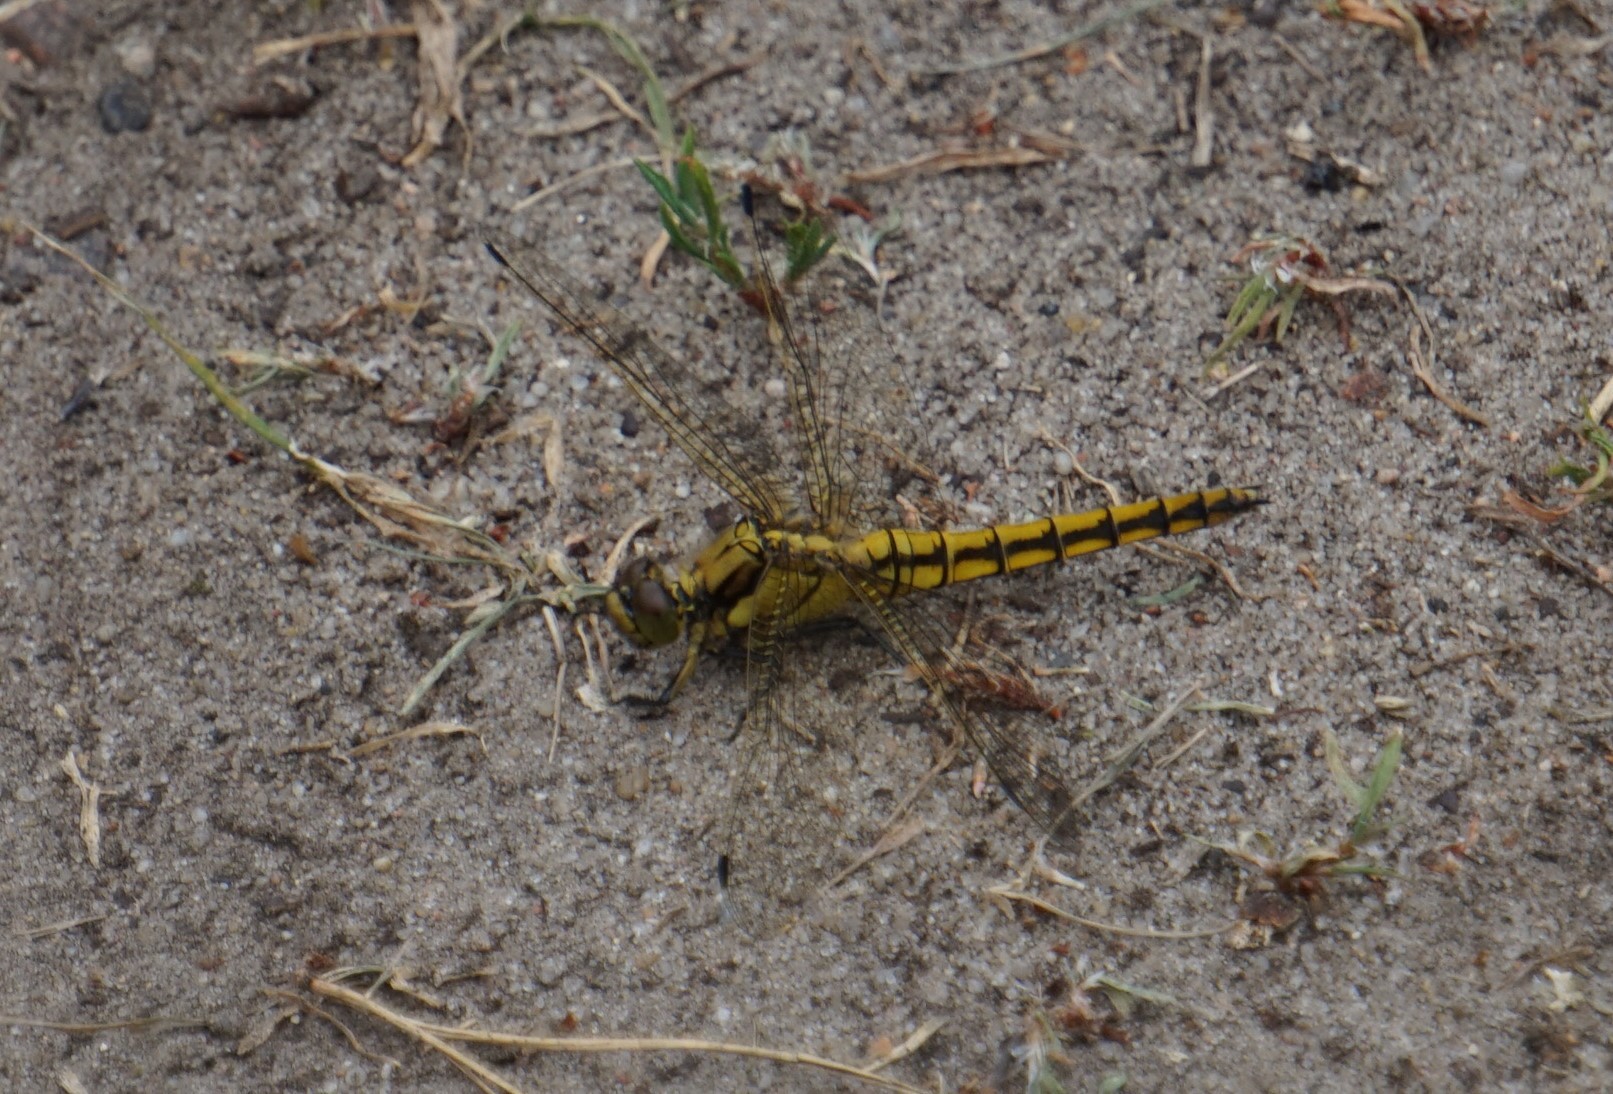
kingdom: Animalia
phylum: Arthropoda
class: Insecta
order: Odonata
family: Libellulidae
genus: Orthetrum
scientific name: Orthetrum cancellatum
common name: Black-tailed skimmer
